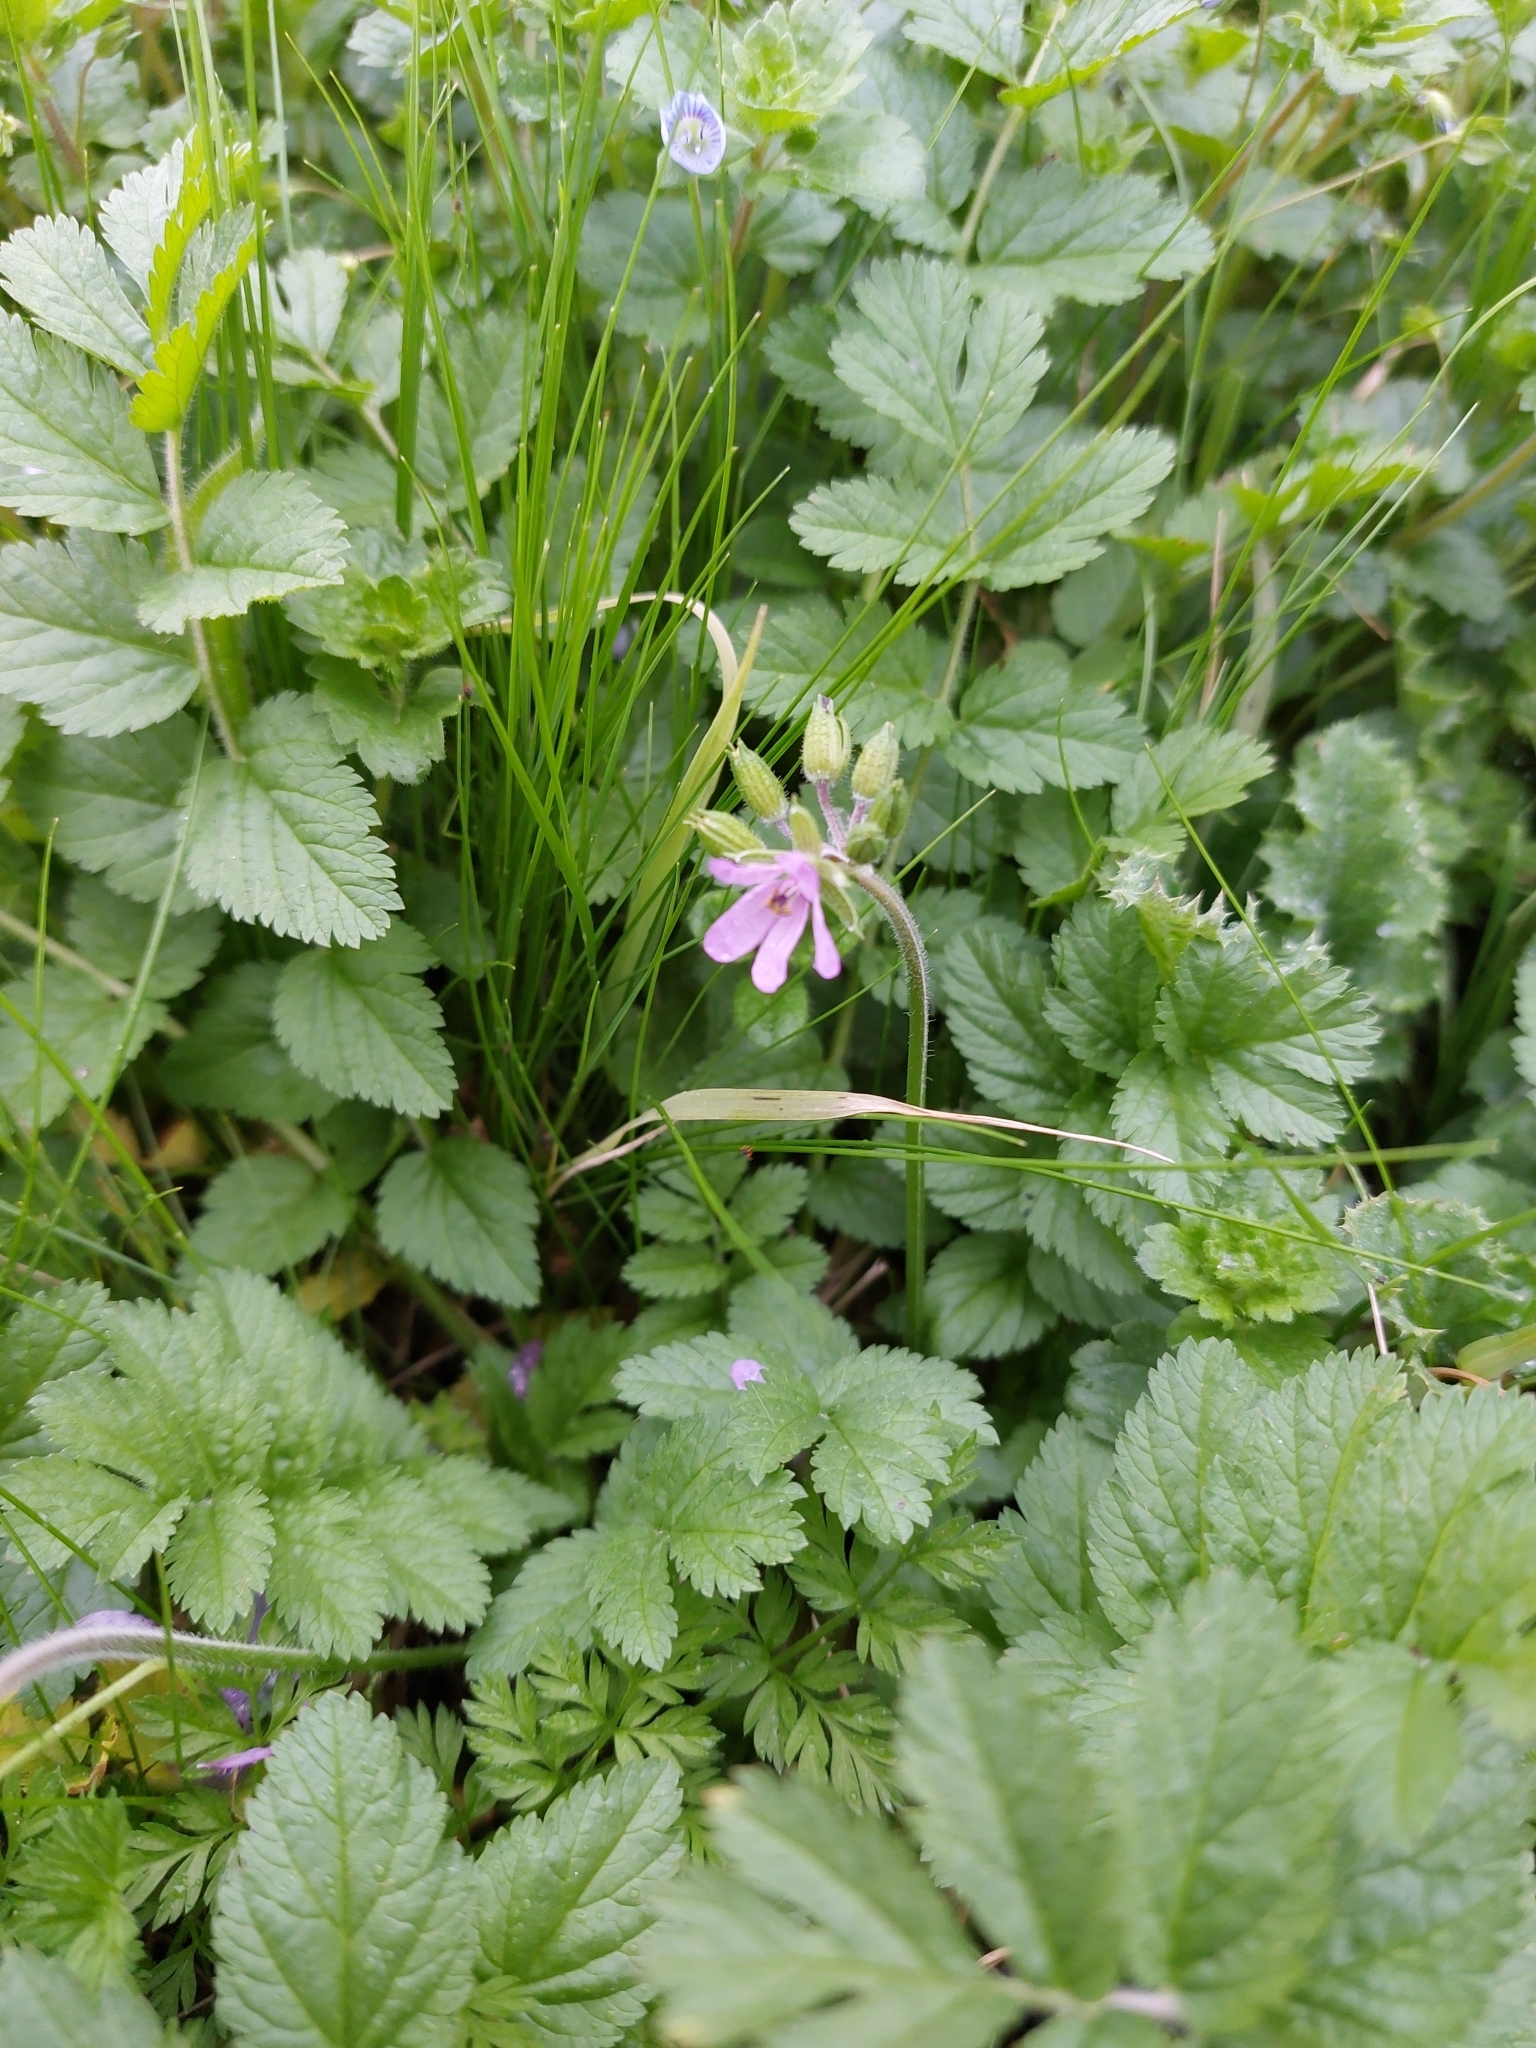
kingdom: Plantae
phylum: Tracheophyta
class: Magnoliopsida
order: Geraniales
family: Geraniaceae
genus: Erodium
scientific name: Erodium moschatum
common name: Musk stork's-bill
